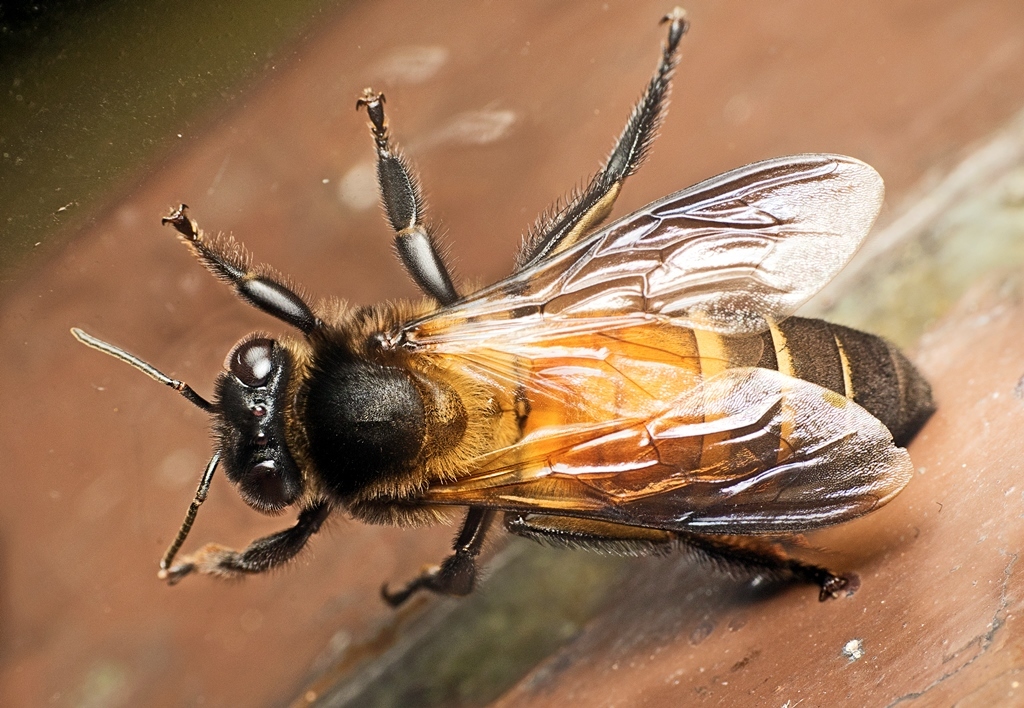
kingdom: Animalia
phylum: Arthropoda
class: Insecta
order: Hymenoptera
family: Apidae
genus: Apis
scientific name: Apis dorsata
